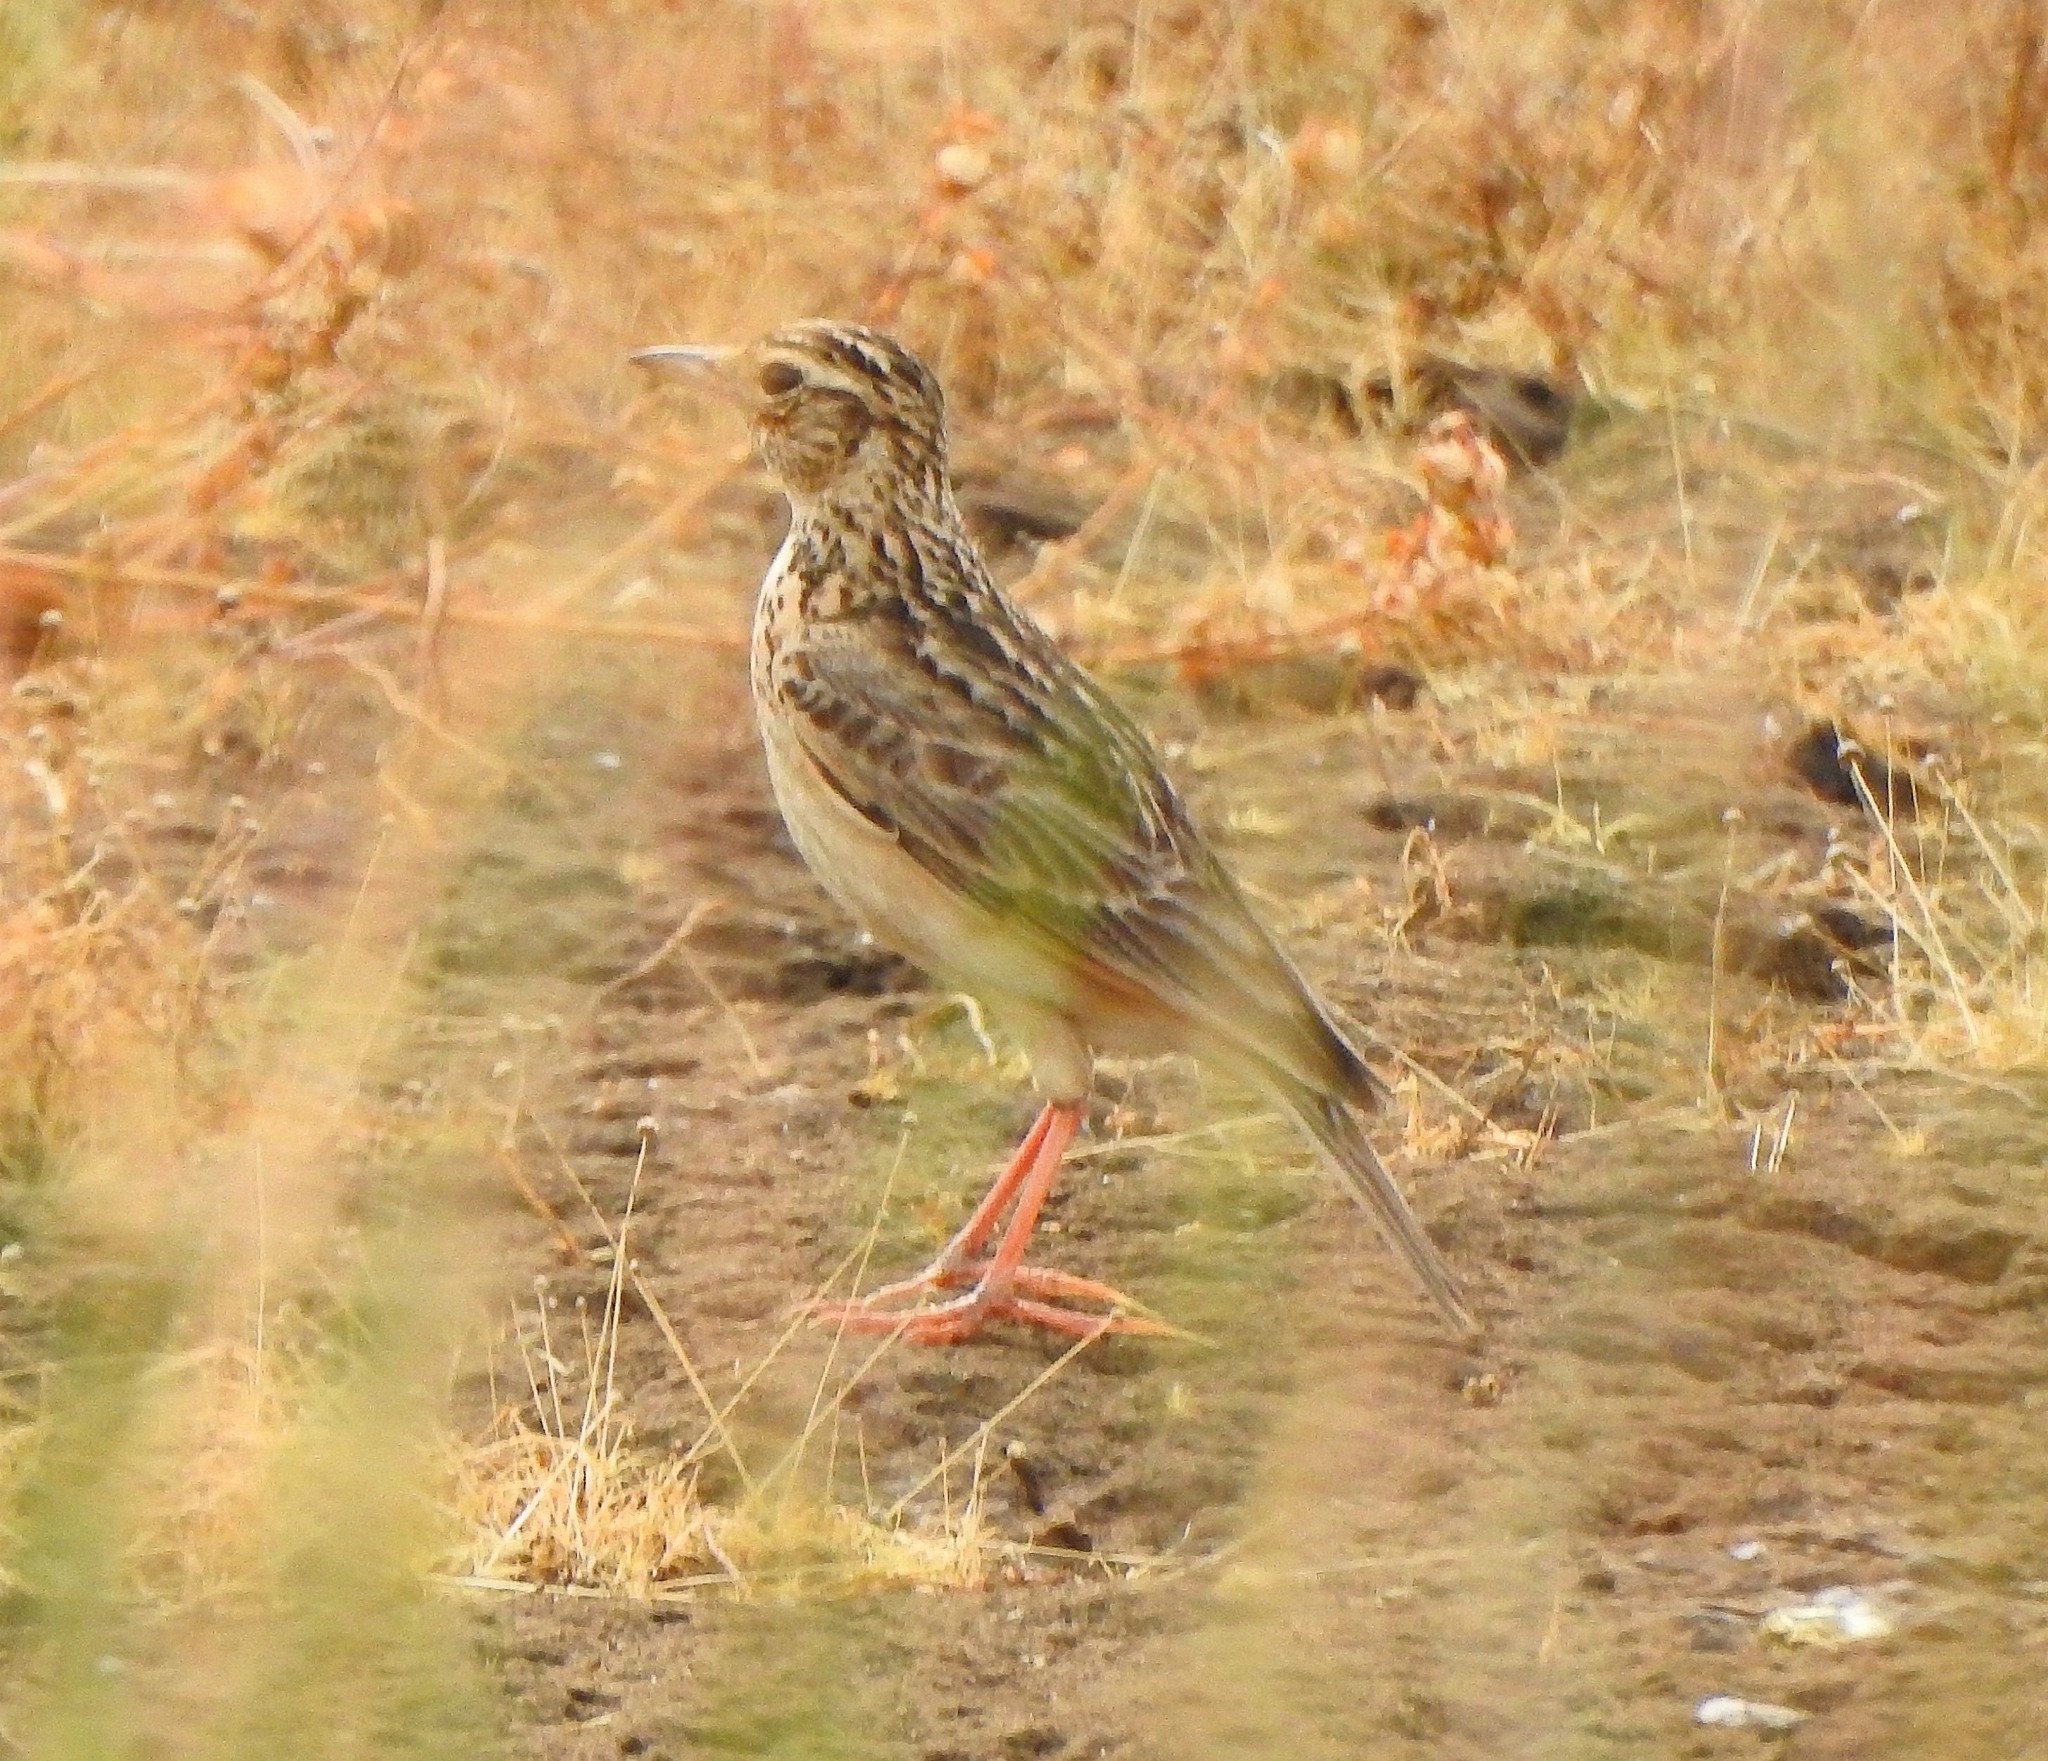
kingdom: Animalia
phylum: Chordata
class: Aves
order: Passeriformes
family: Alaudidae
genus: Alauda
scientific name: Alauda gulgula
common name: Oriental skylark
